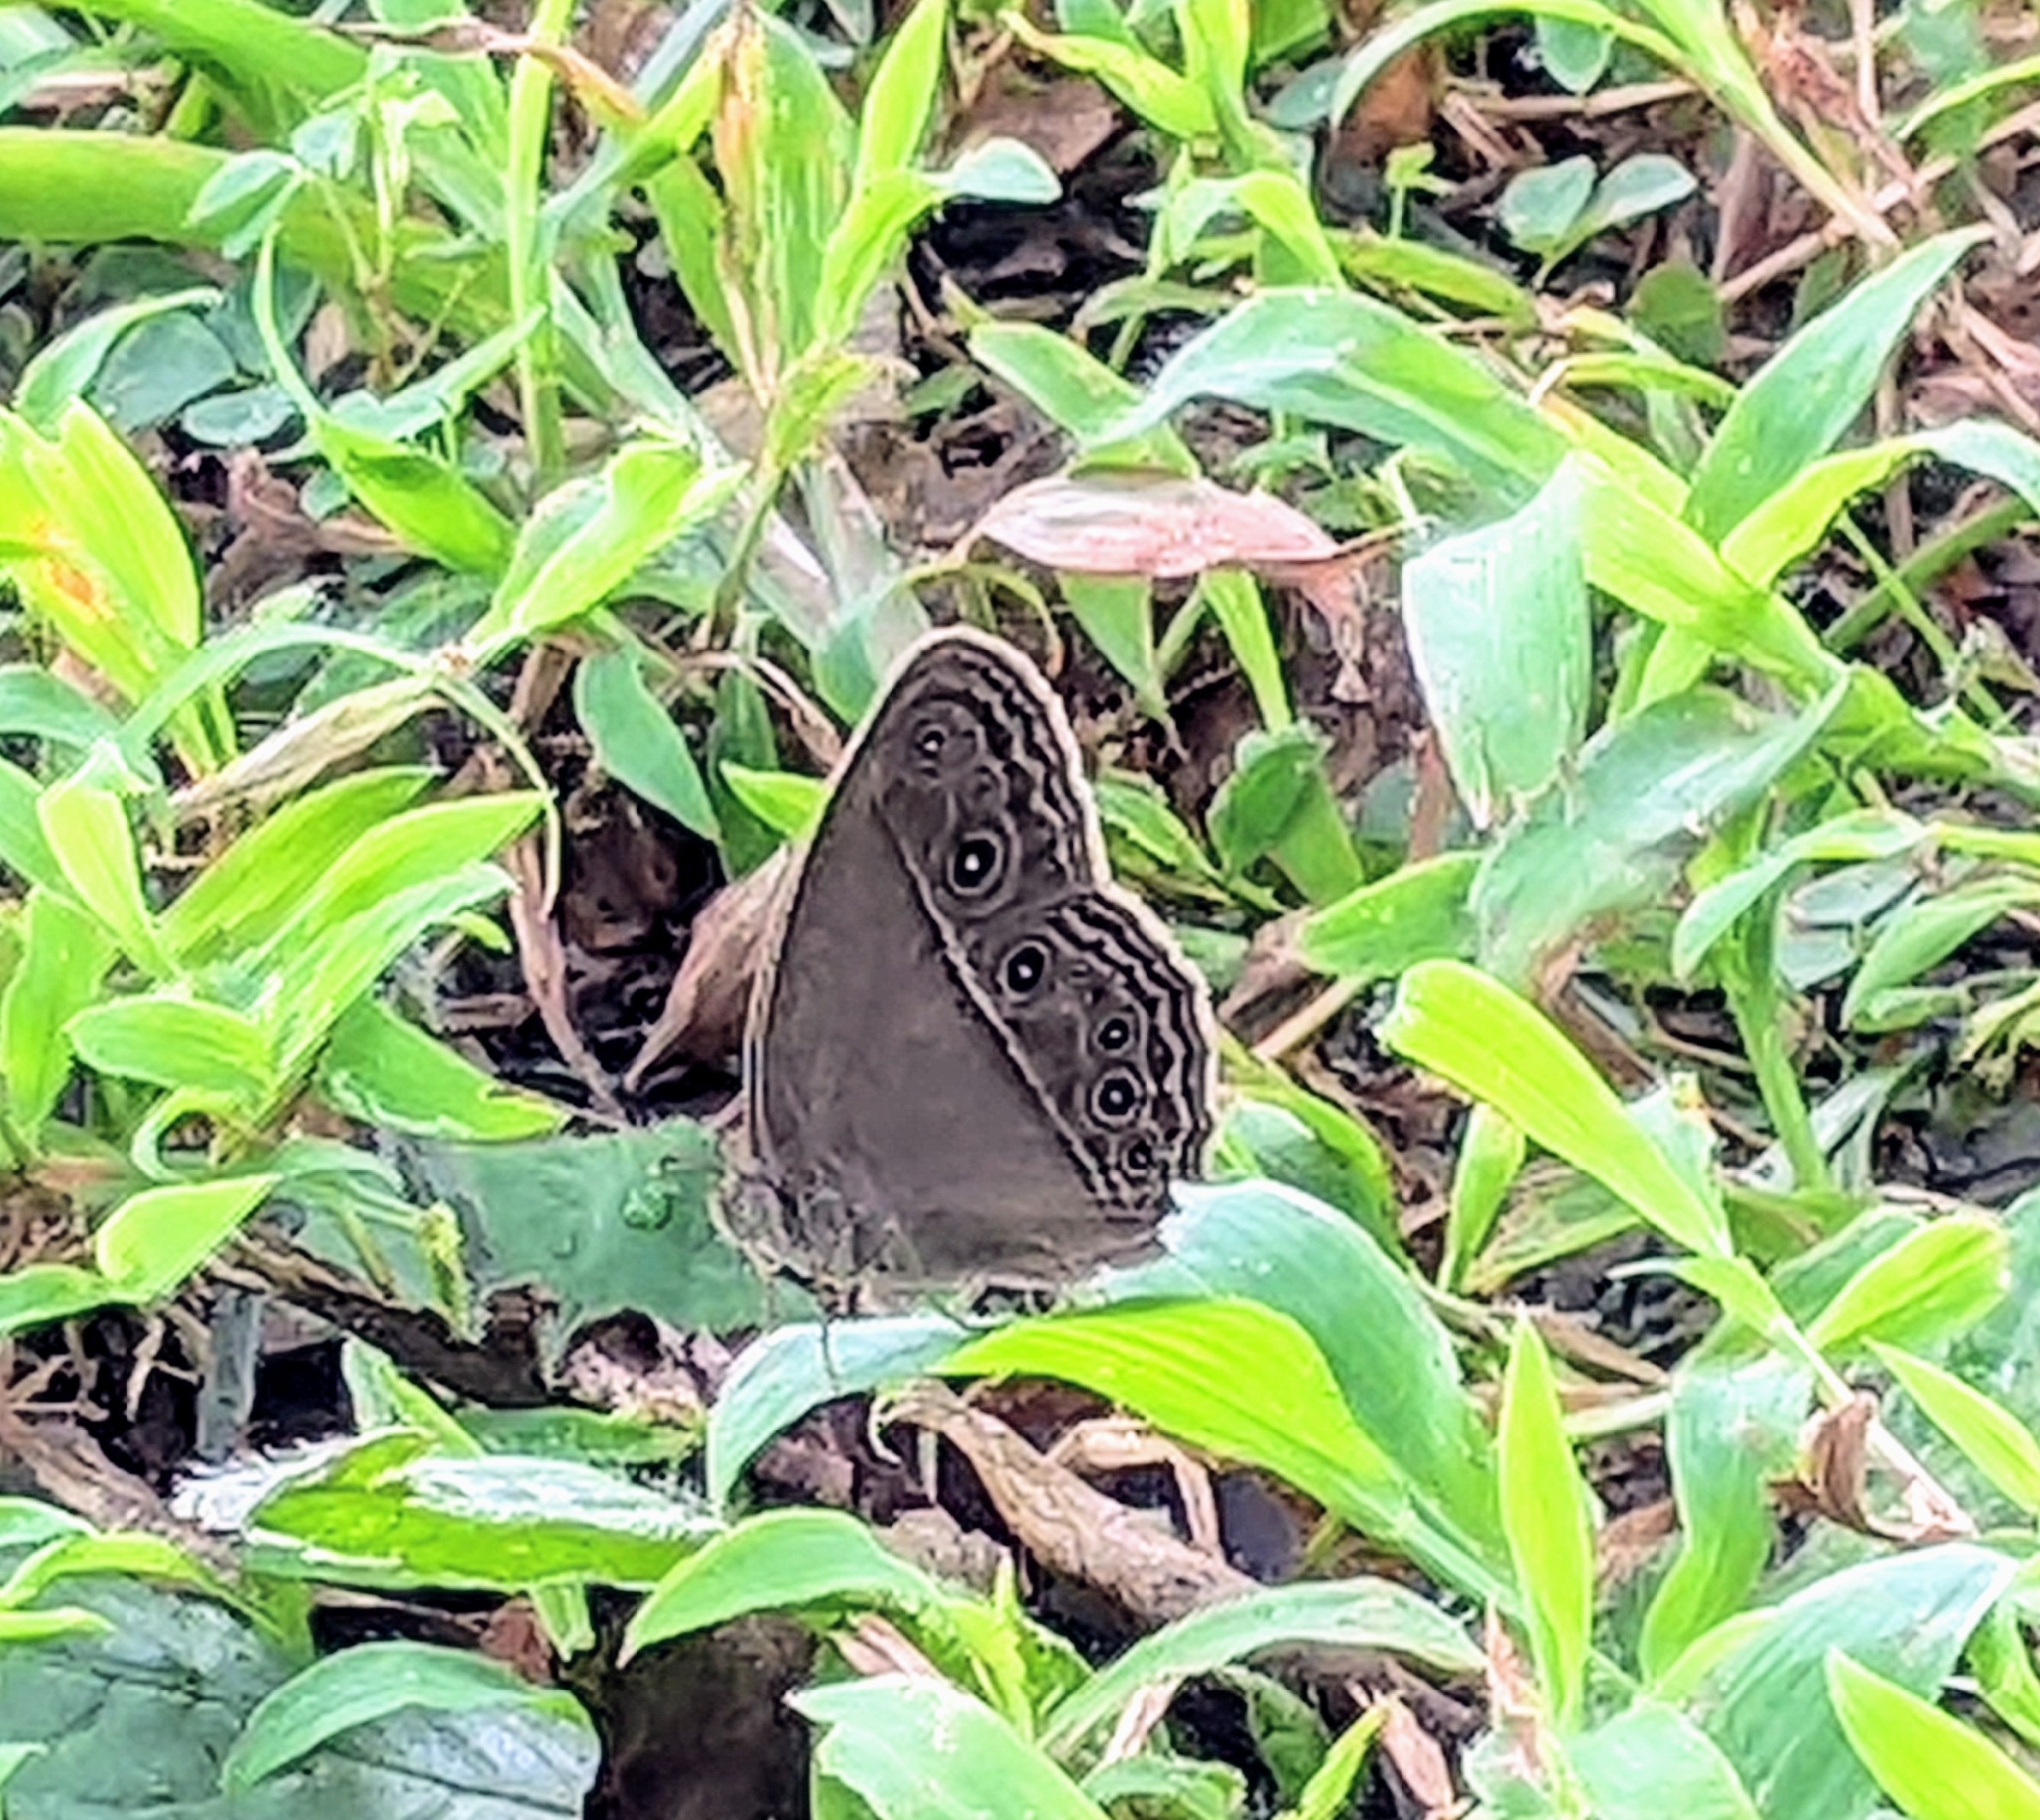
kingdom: Animalia
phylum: Arthropoda
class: Insecta
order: Lepidoptera
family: Nymphalidae
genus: Mycalesis
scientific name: Mycalesis perseus
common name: Dingy bushbrown
